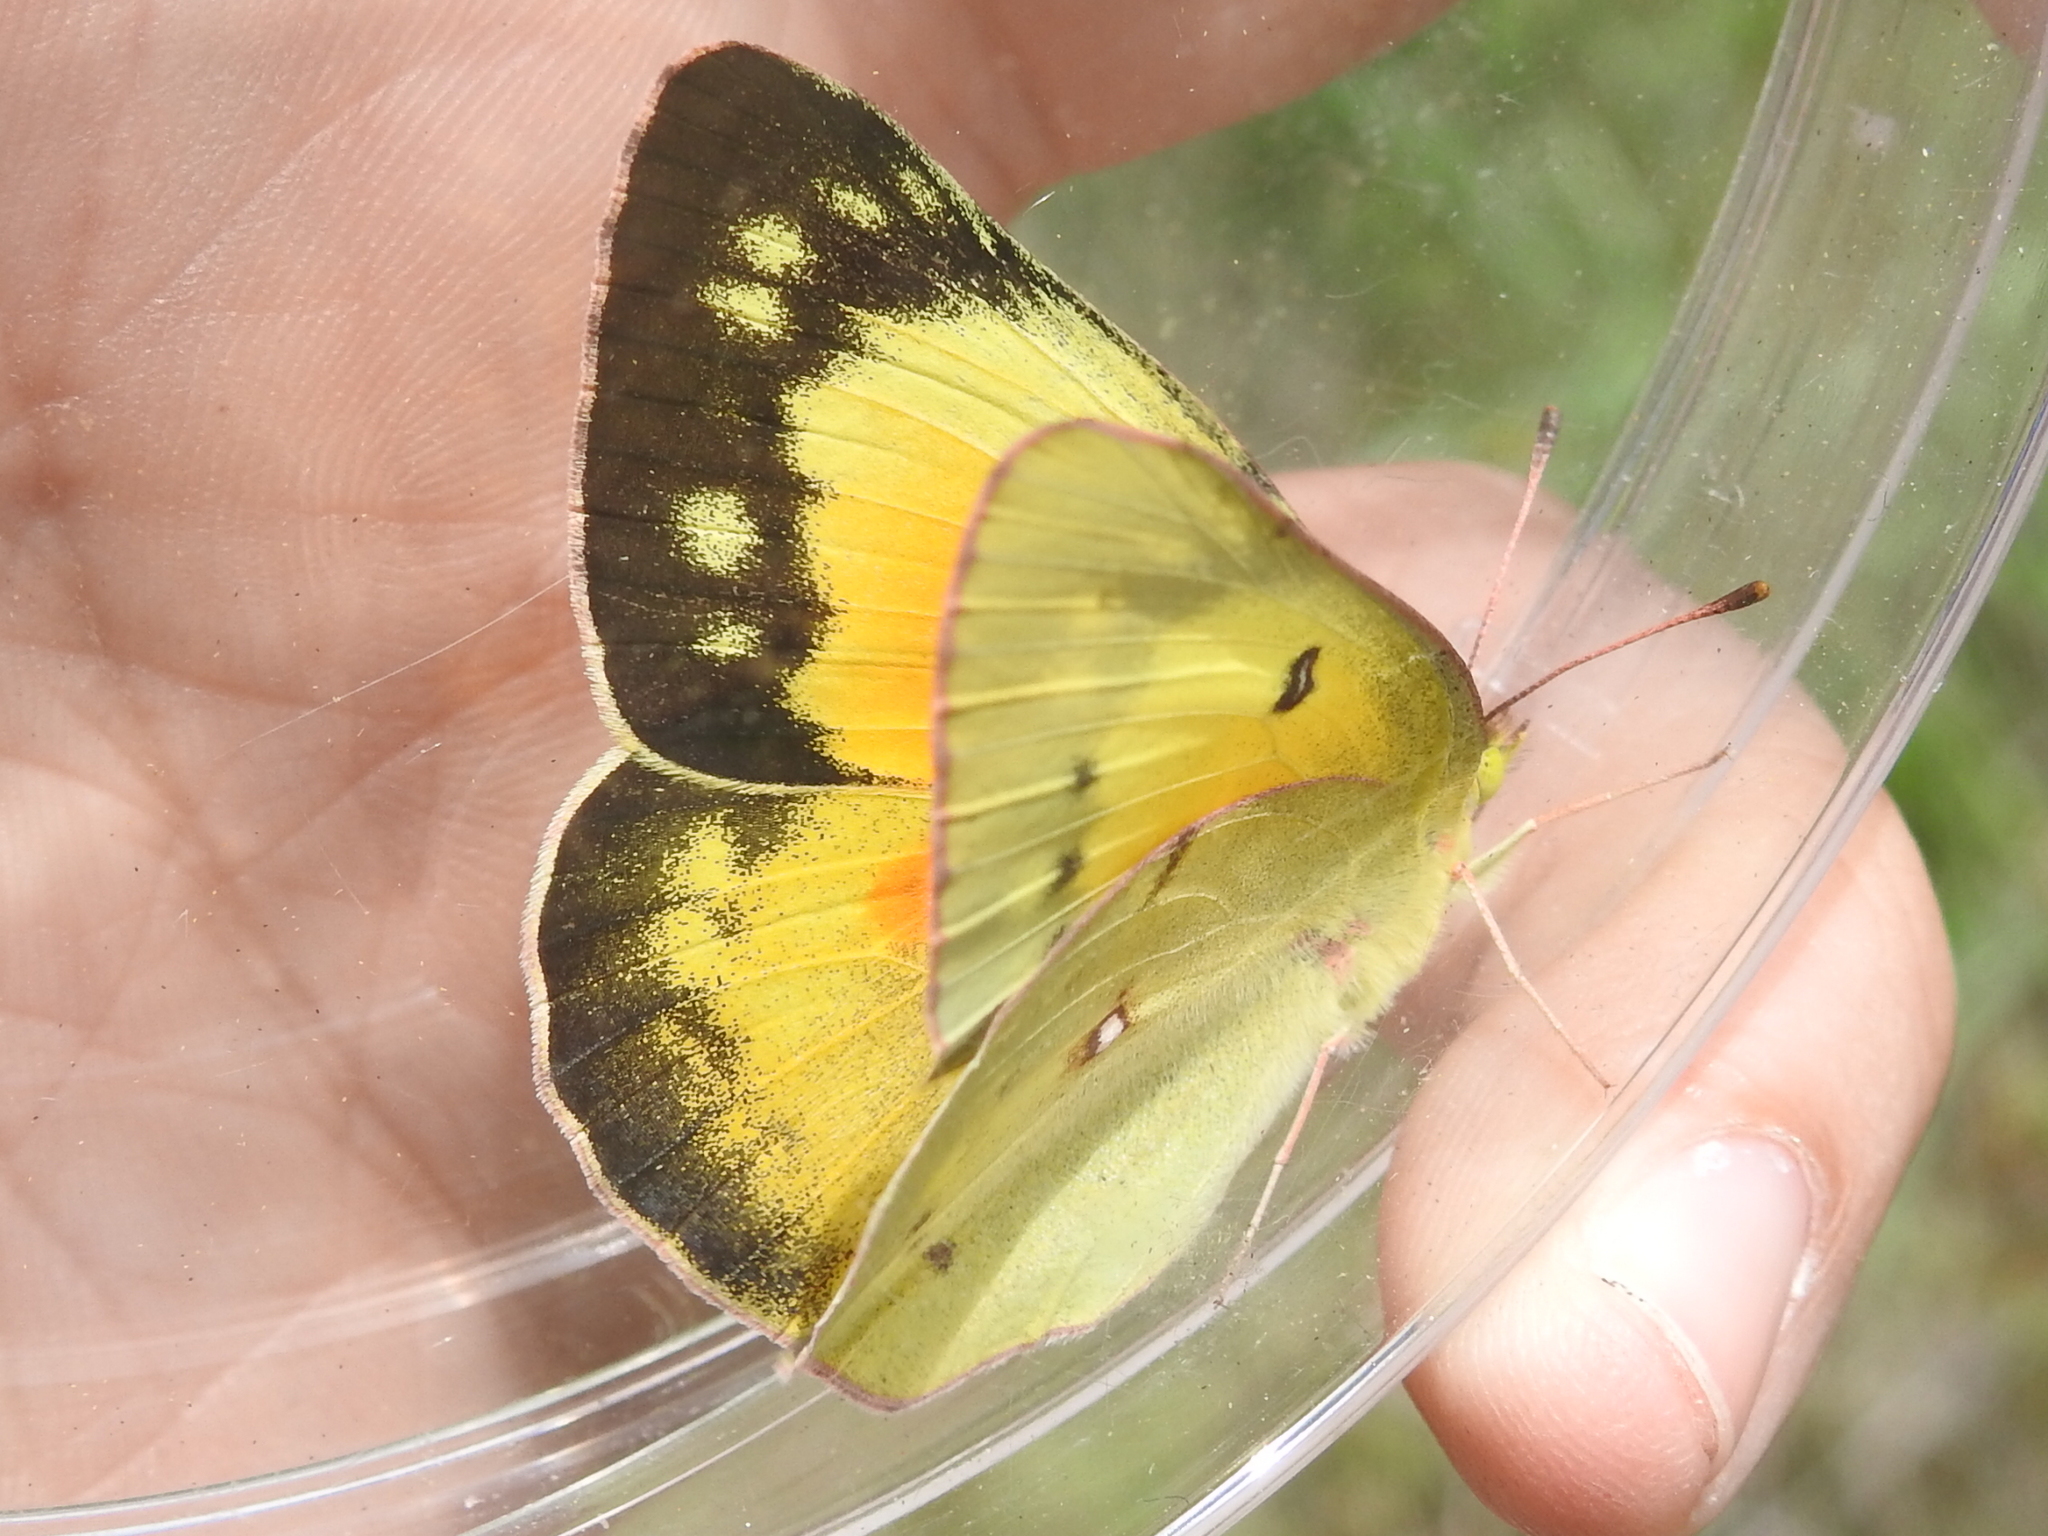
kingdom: Animalia
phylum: Arthropoda
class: Insecta
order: Lepidoptera
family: Pieridae
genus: Colias
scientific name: Colias eurytheme
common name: Alfalfa butterfly
